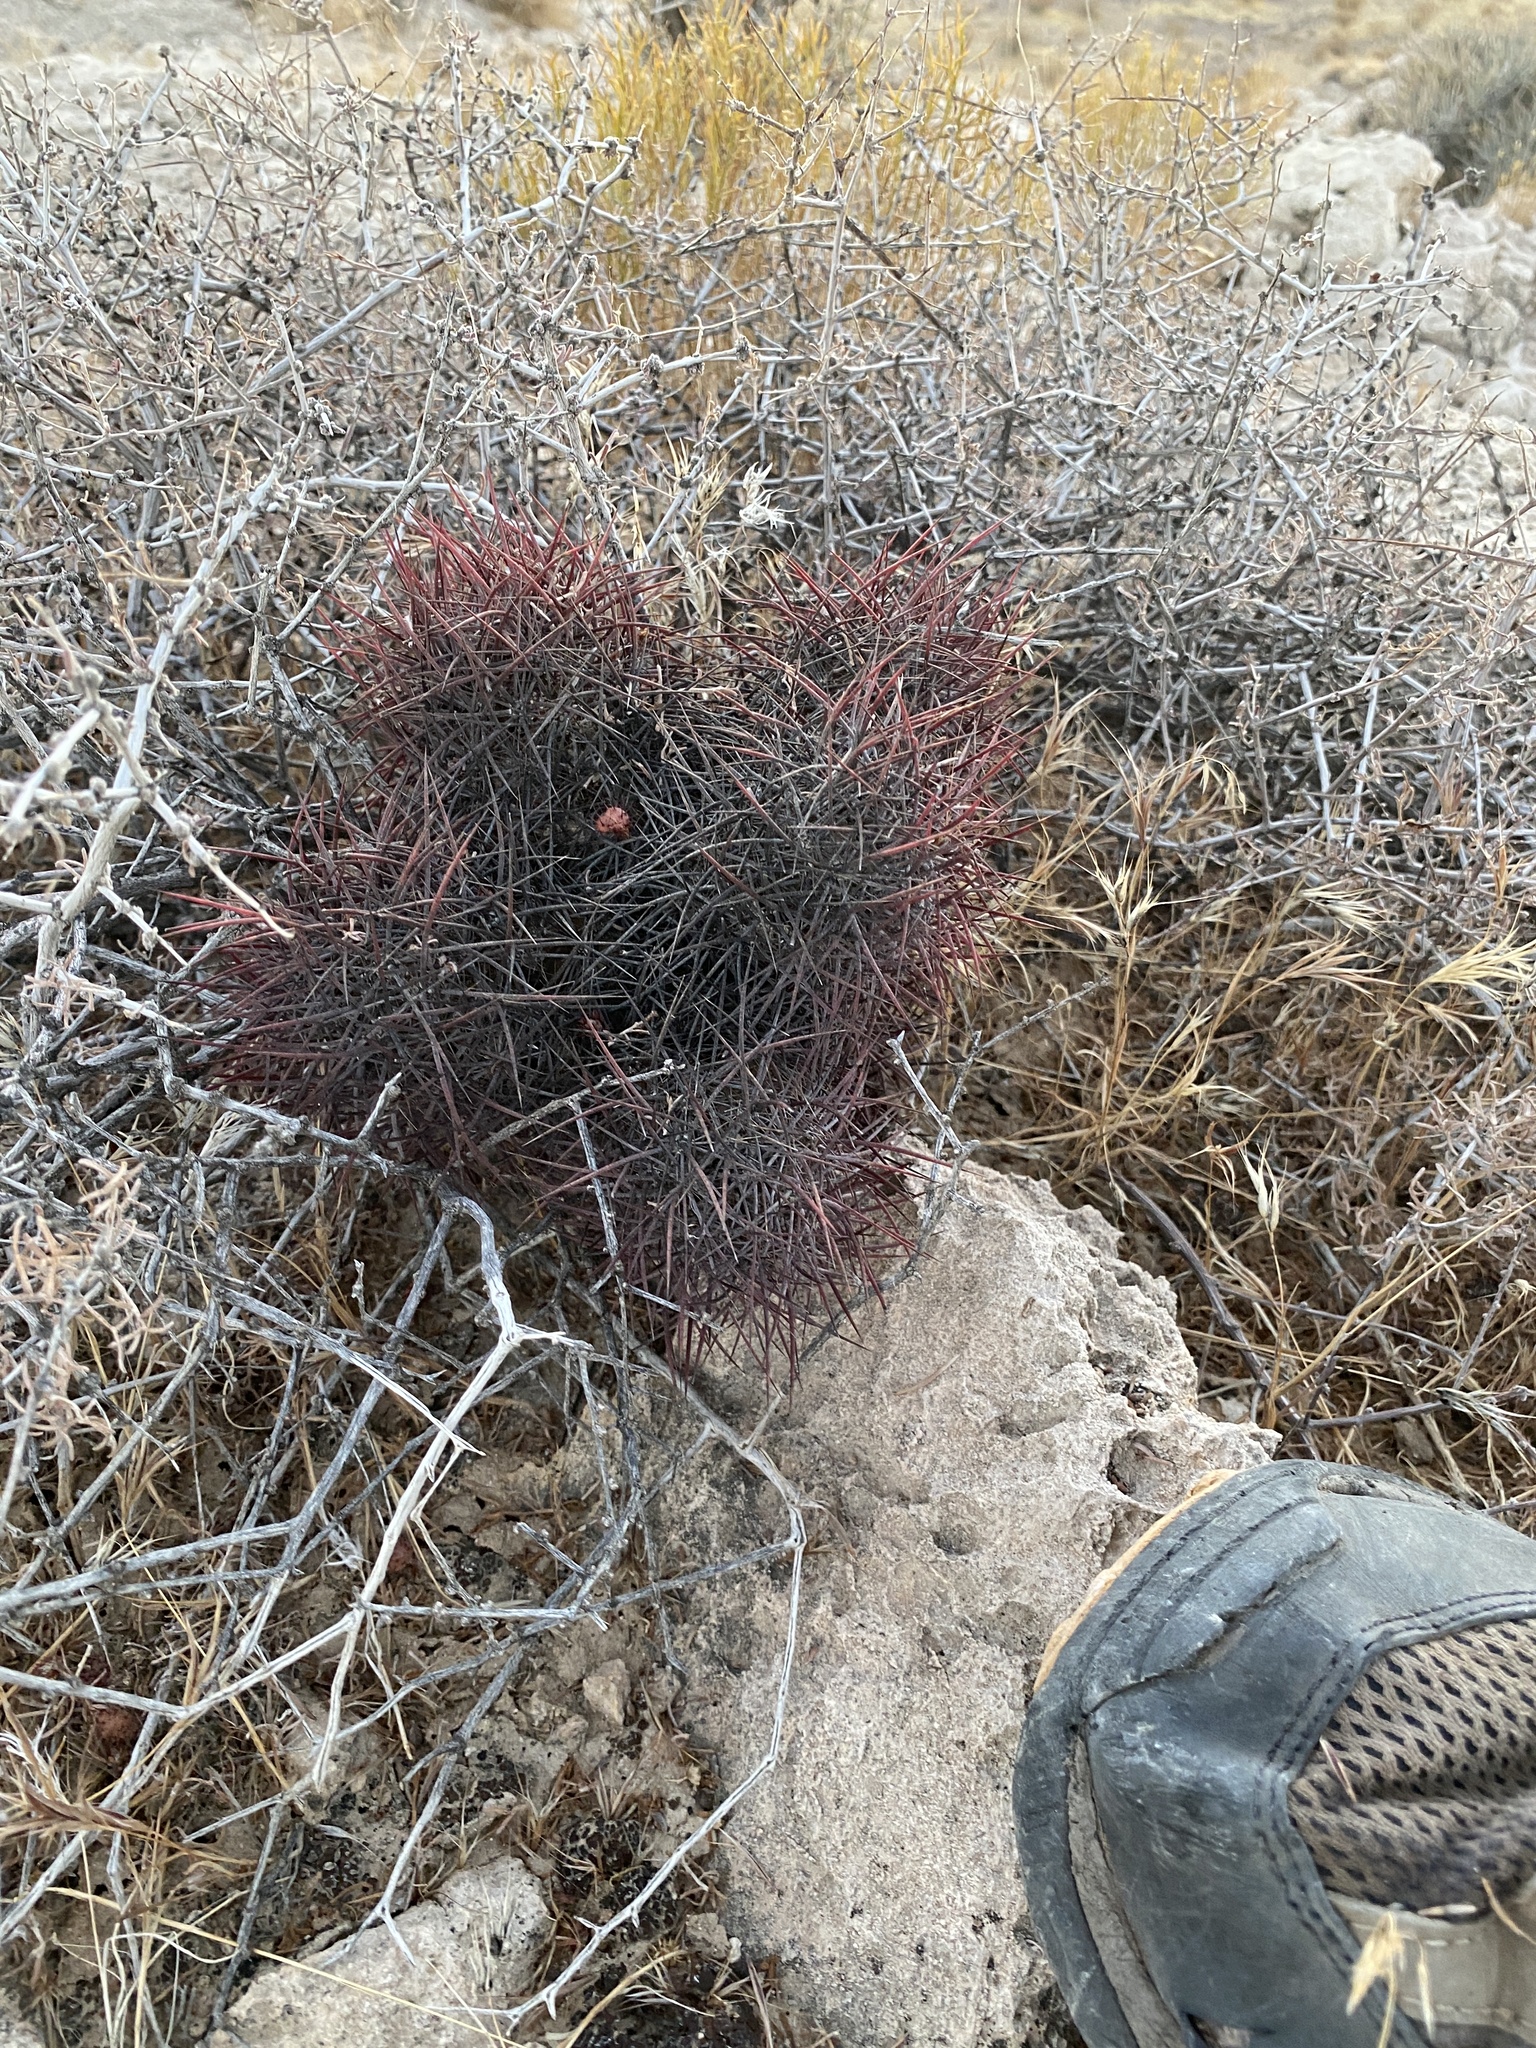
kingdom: Plantae
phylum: Tracheophyta
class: Magnoliopsida
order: Caryophyllales
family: Cactaceae
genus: Sclerocactus
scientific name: Sclerocactus johnsonii
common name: Eight-spine fishhook cactus
